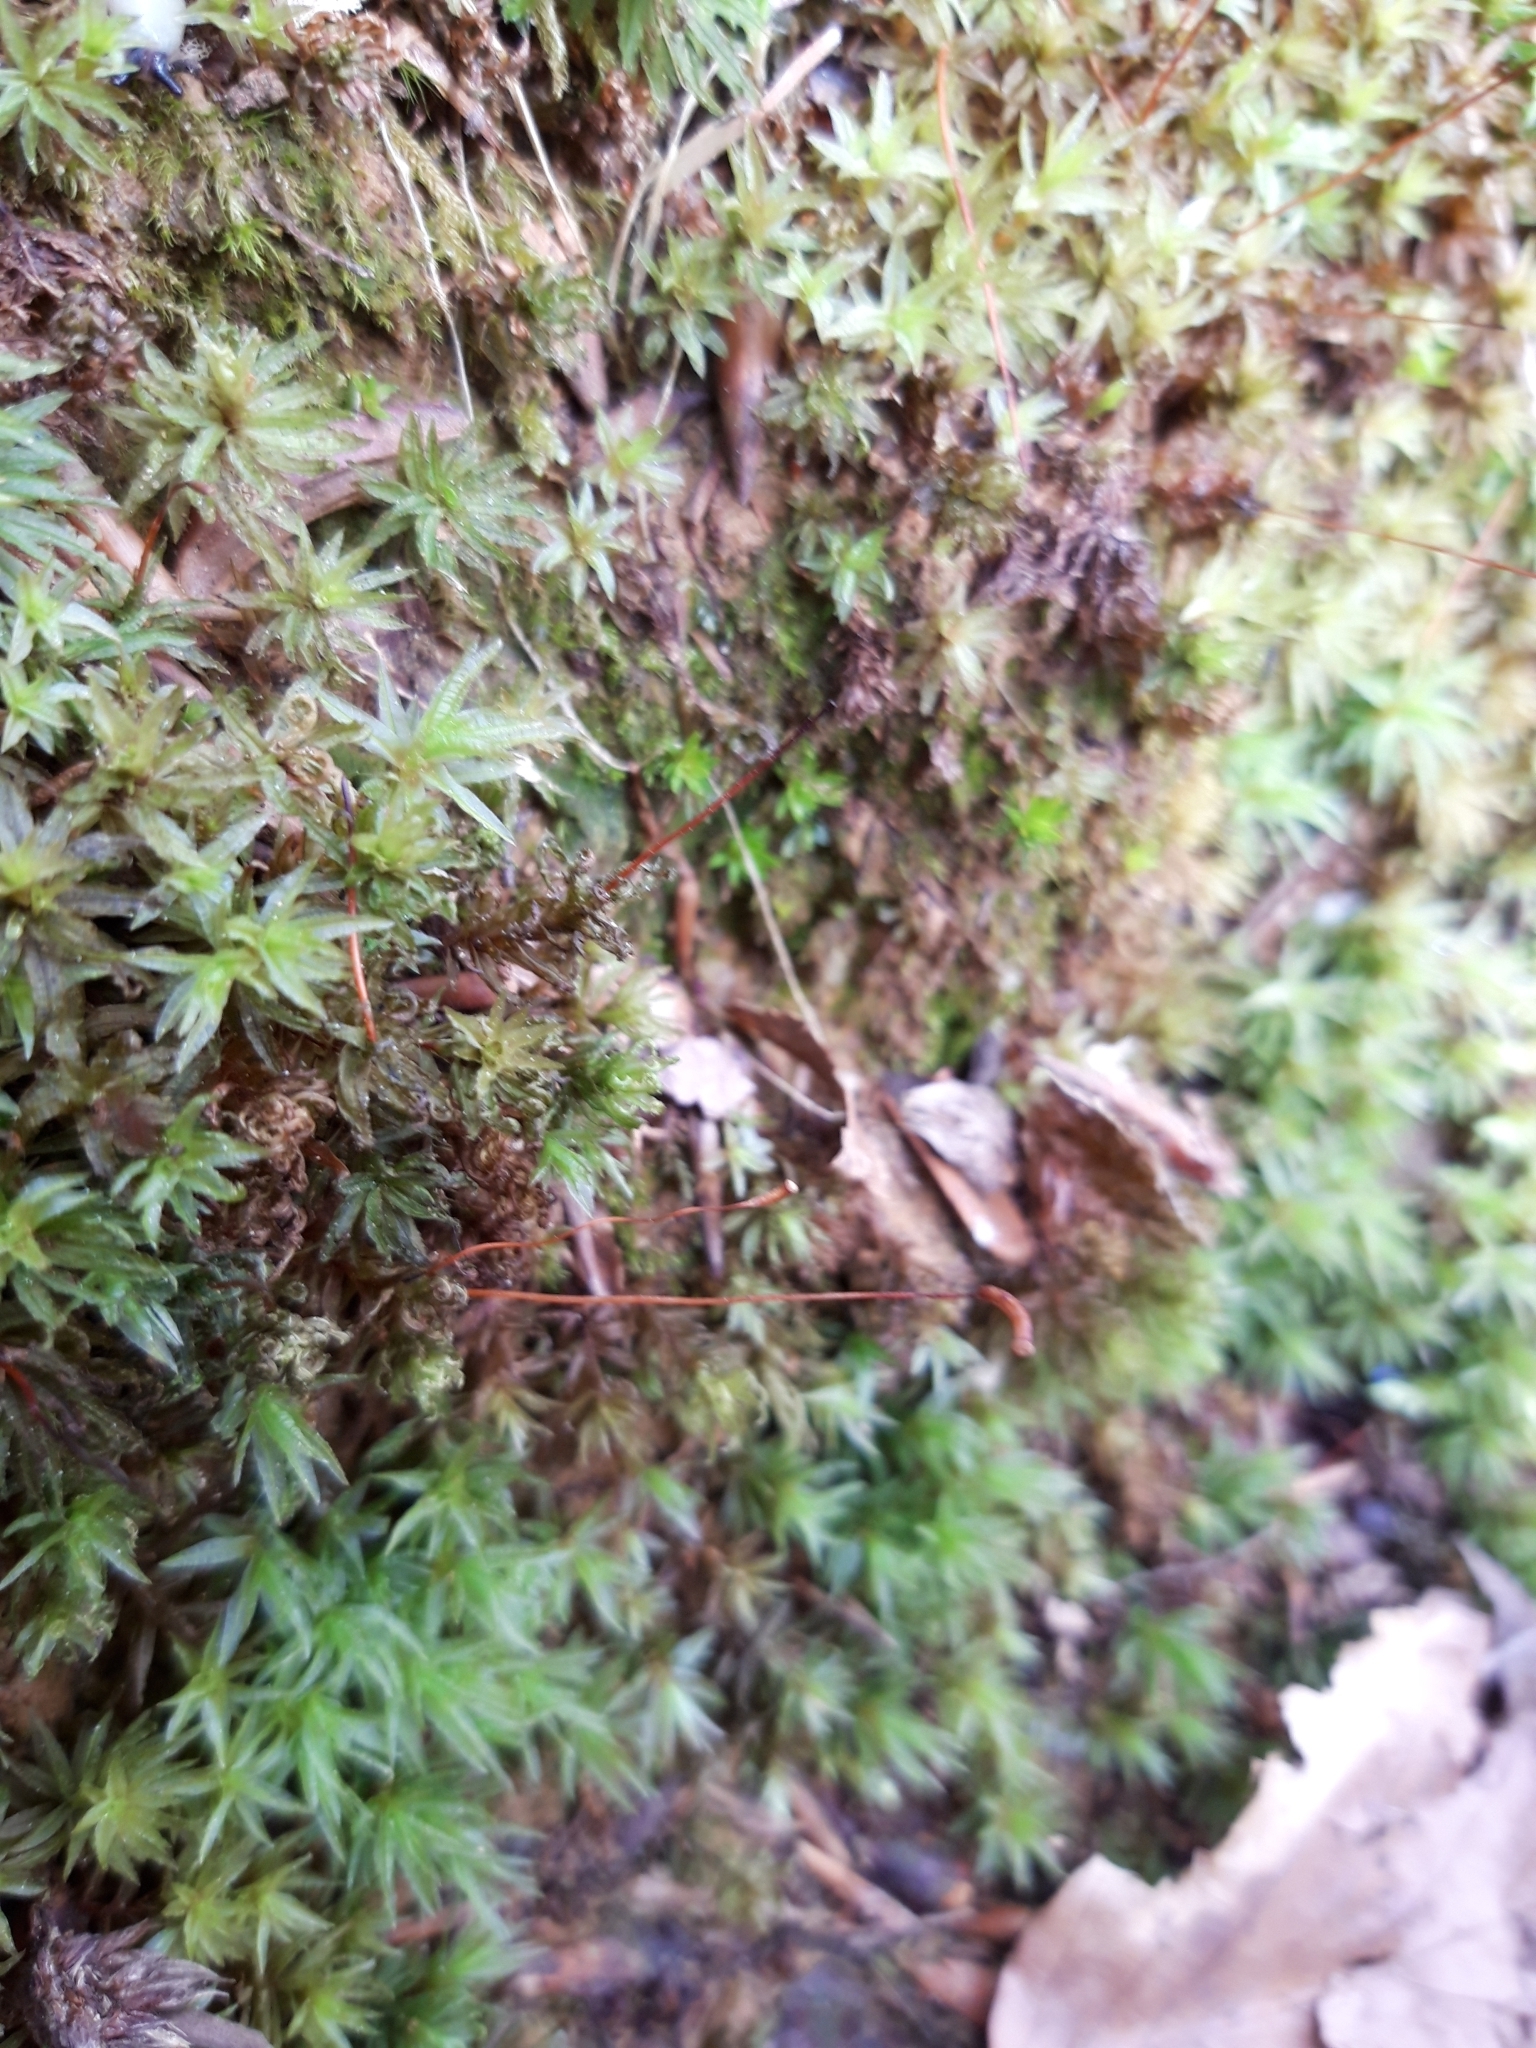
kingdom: Plantae
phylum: Bryophyta
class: Polytrichopsida
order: Polytrichales
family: Polytrichaceae
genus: Atrichum
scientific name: Atrichum undulatum
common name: Common smoothcap
